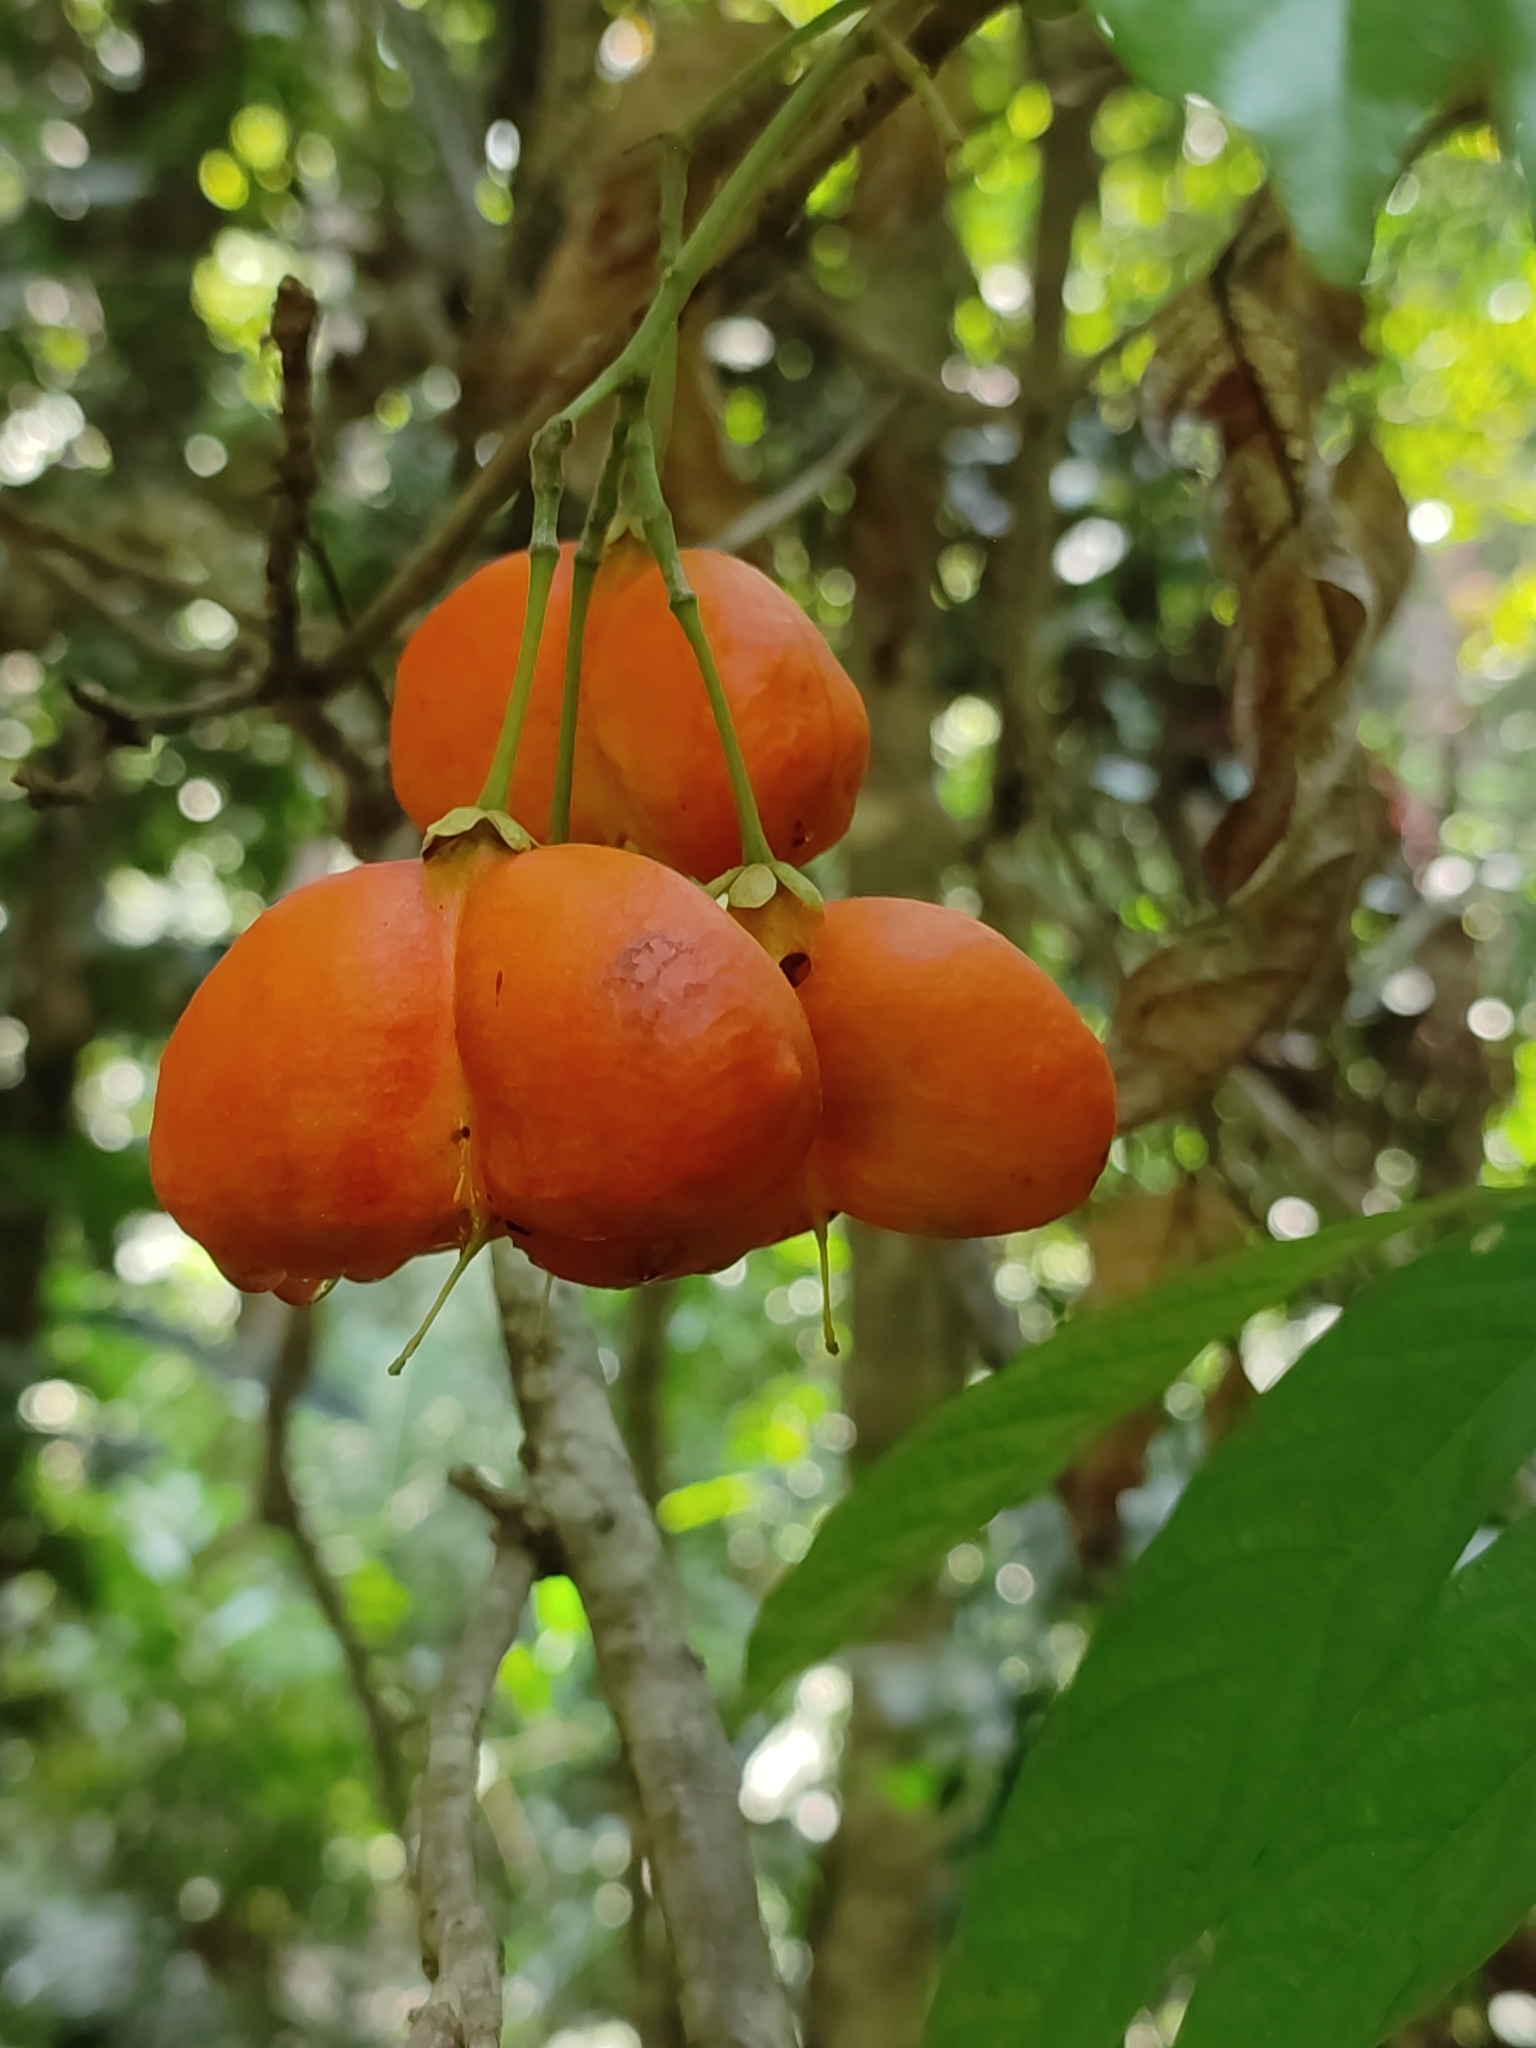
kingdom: Plantae
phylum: Tracheophyta
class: Magnoliopsida
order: Sapindales
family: Sapindaceae
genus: Harpullia
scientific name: Harpullia arborea
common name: Tulip-wood tree
